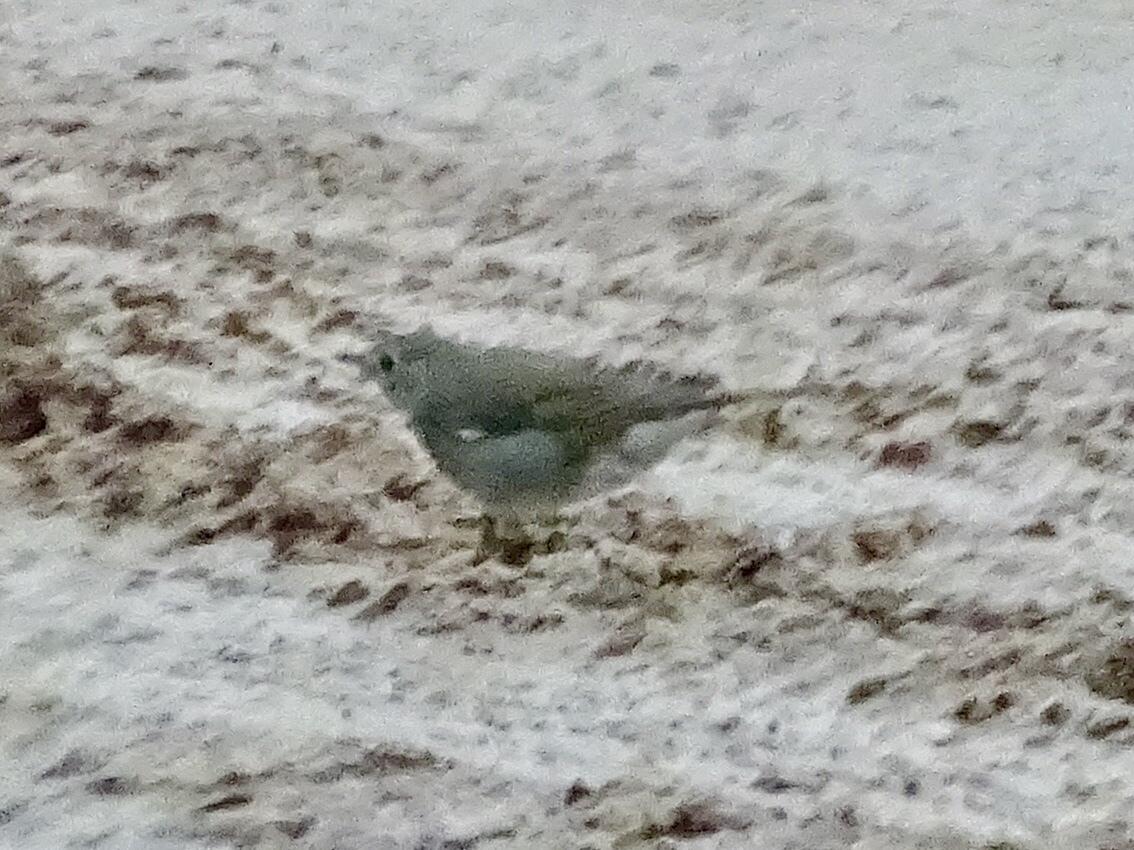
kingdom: Animalia
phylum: Chordata
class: Aves
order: Passeriformes
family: Turdidae
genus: Myadestes
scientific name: Myadestes townsendi
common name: Townsend's solitaire
